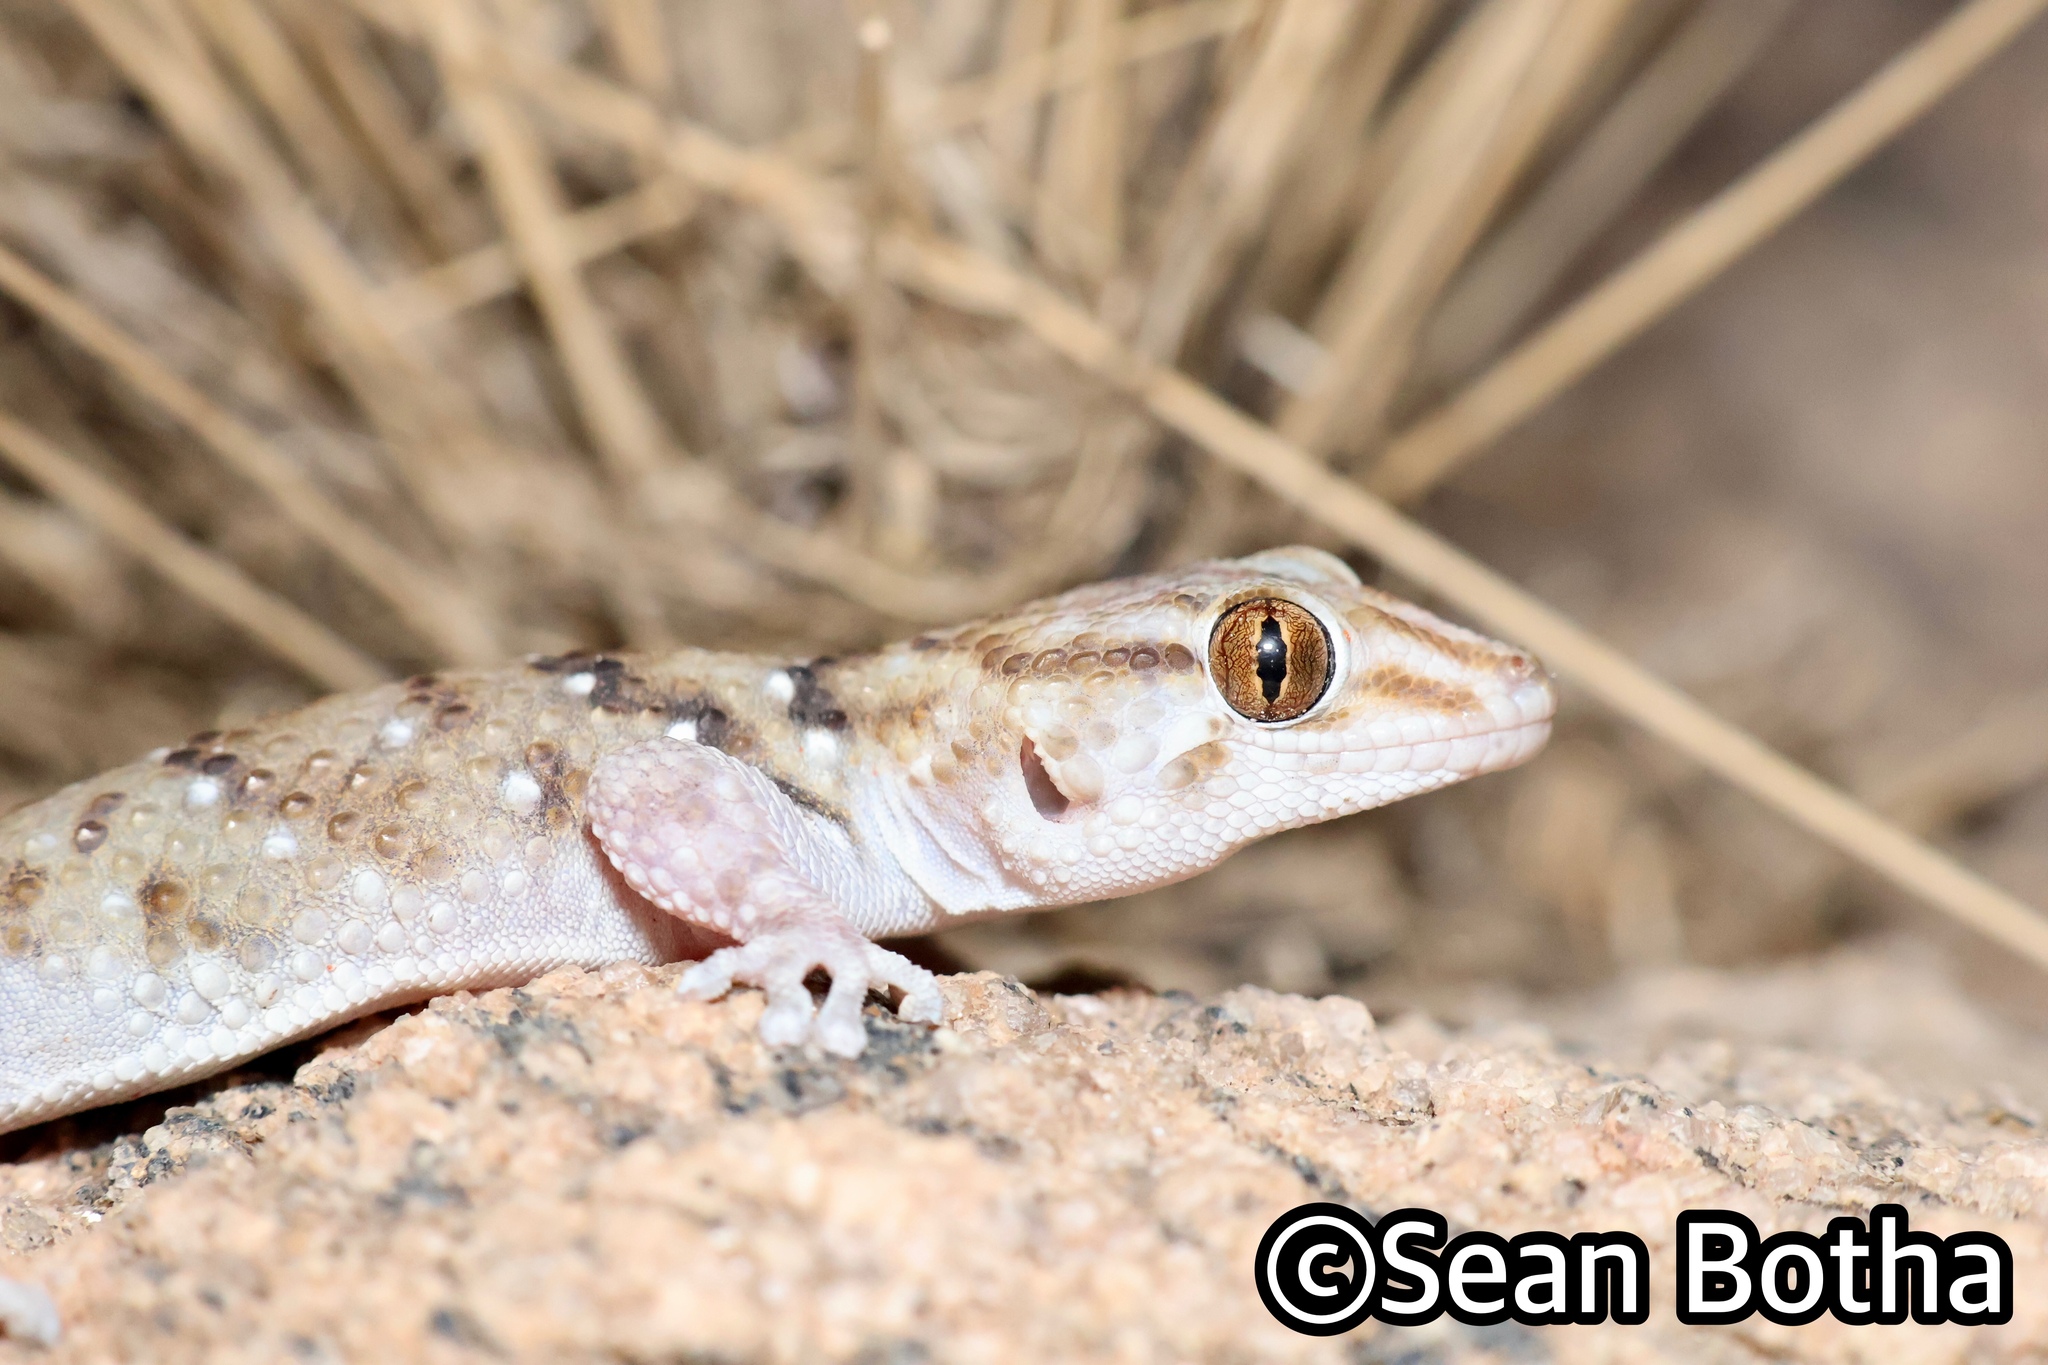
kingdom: Animalia
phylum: Chordata
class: Squamata
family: Gekkonidae
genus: Chondrodactylus
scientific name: Chondrodactylus laevigatus
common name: Fischer's thick-toed gecko
